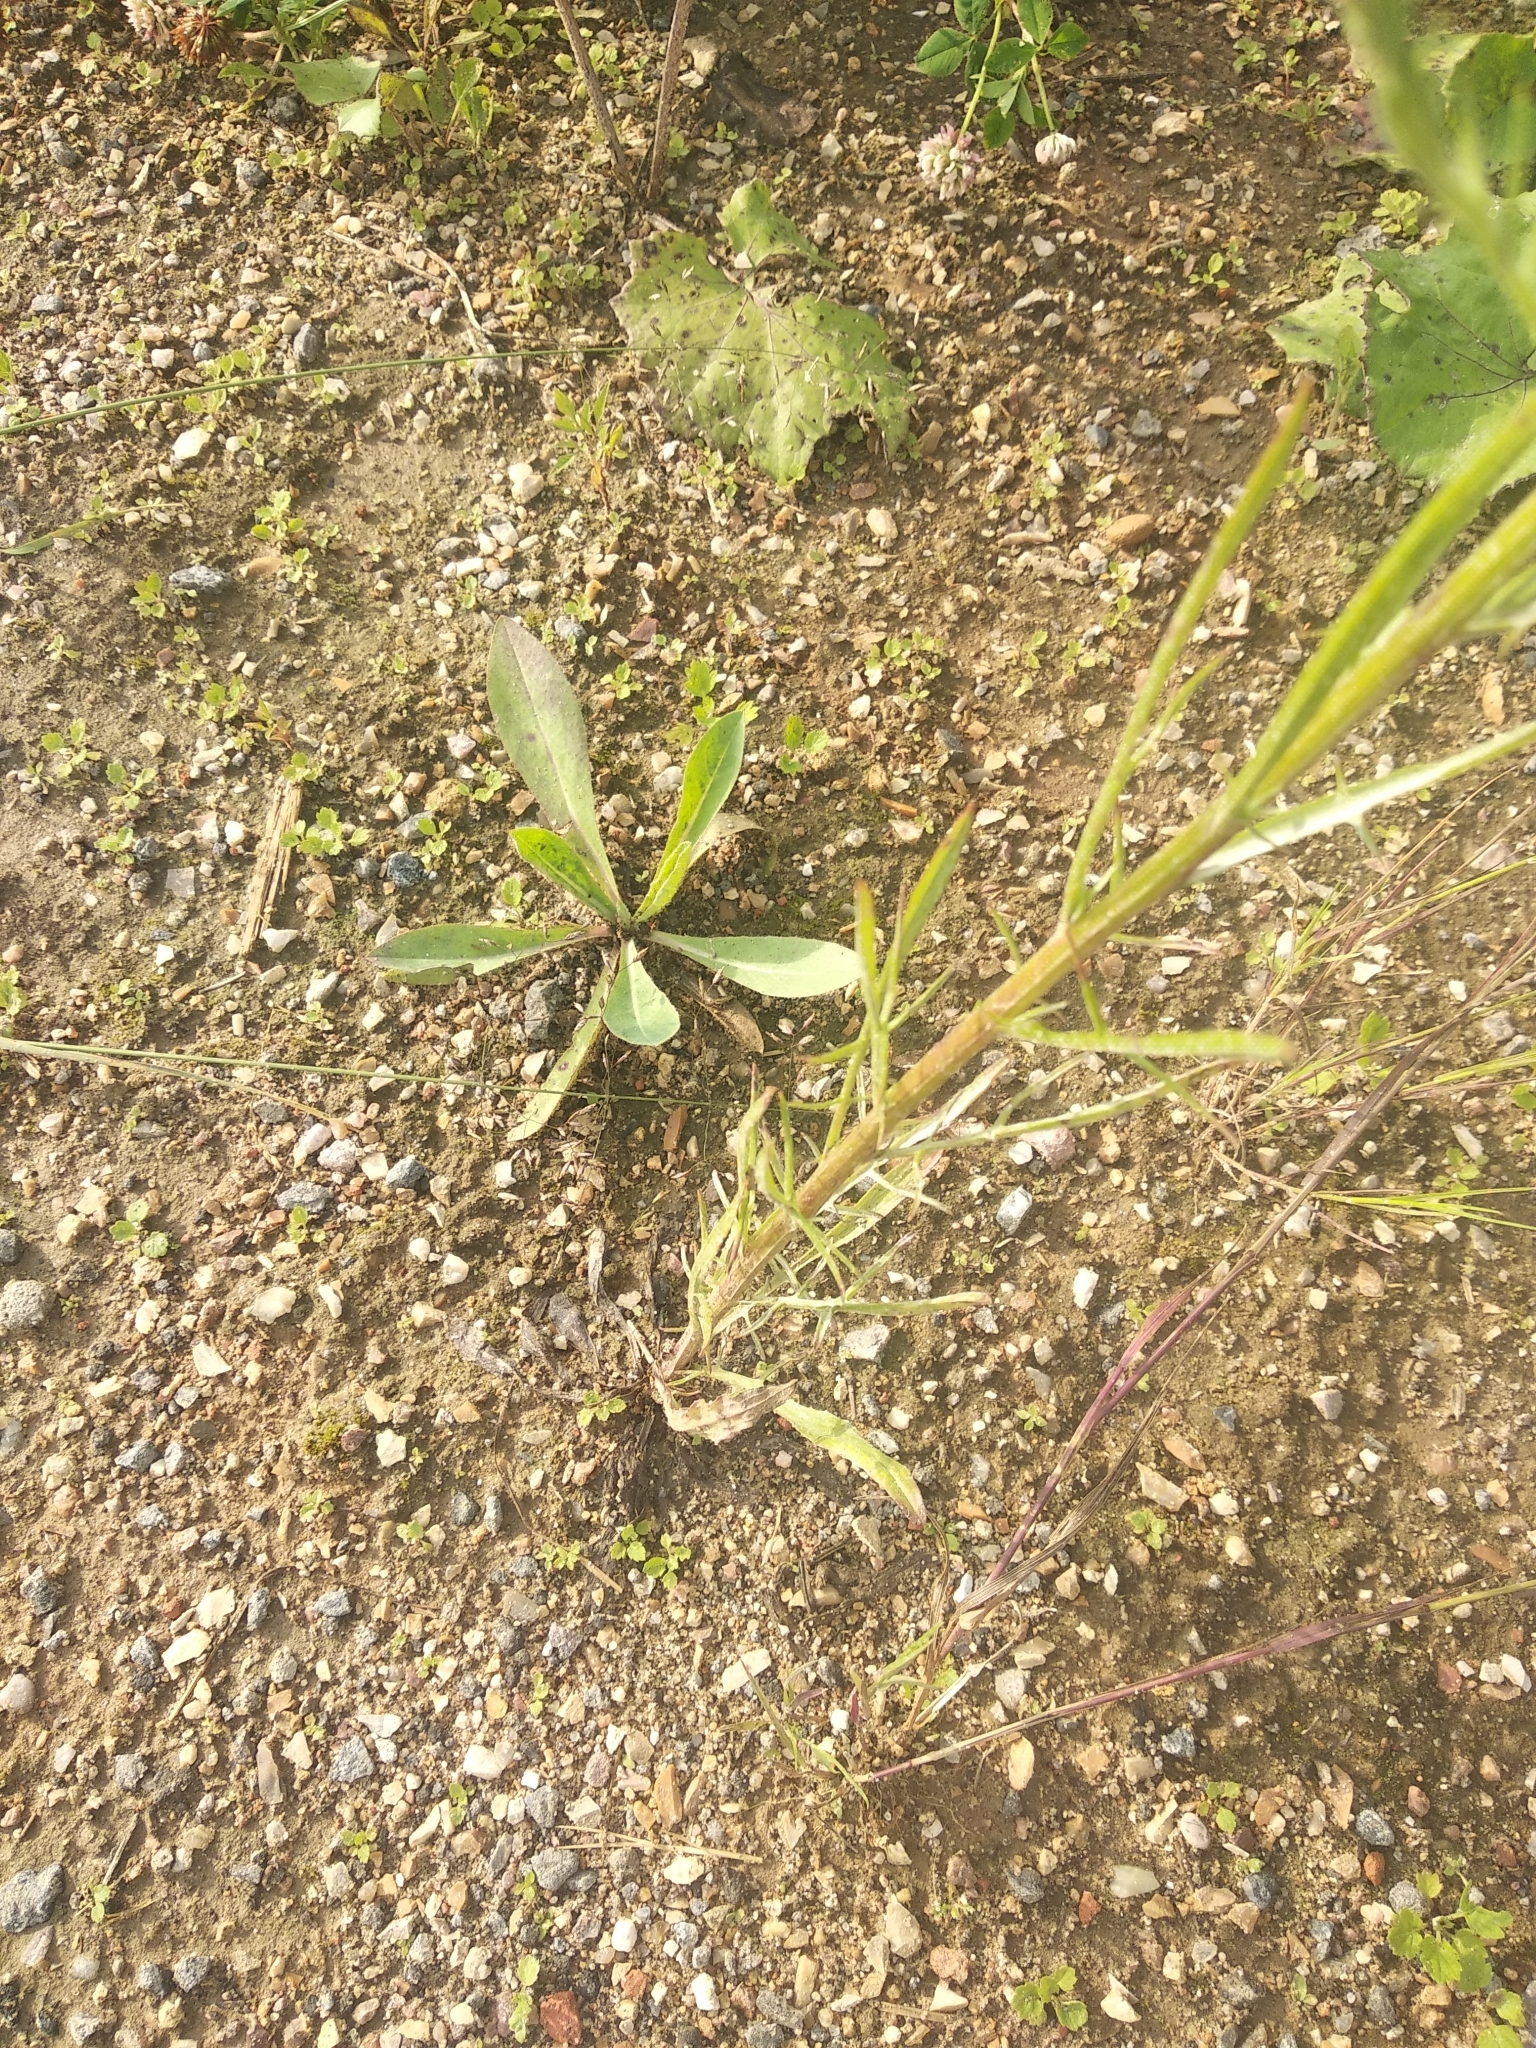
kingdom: Plantae
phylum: Tracheophyta
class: Magnoliopsida
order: Asterales
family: Asteraceae
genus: Centaurea
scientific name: Centaurea cyanus
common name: Cornflower
